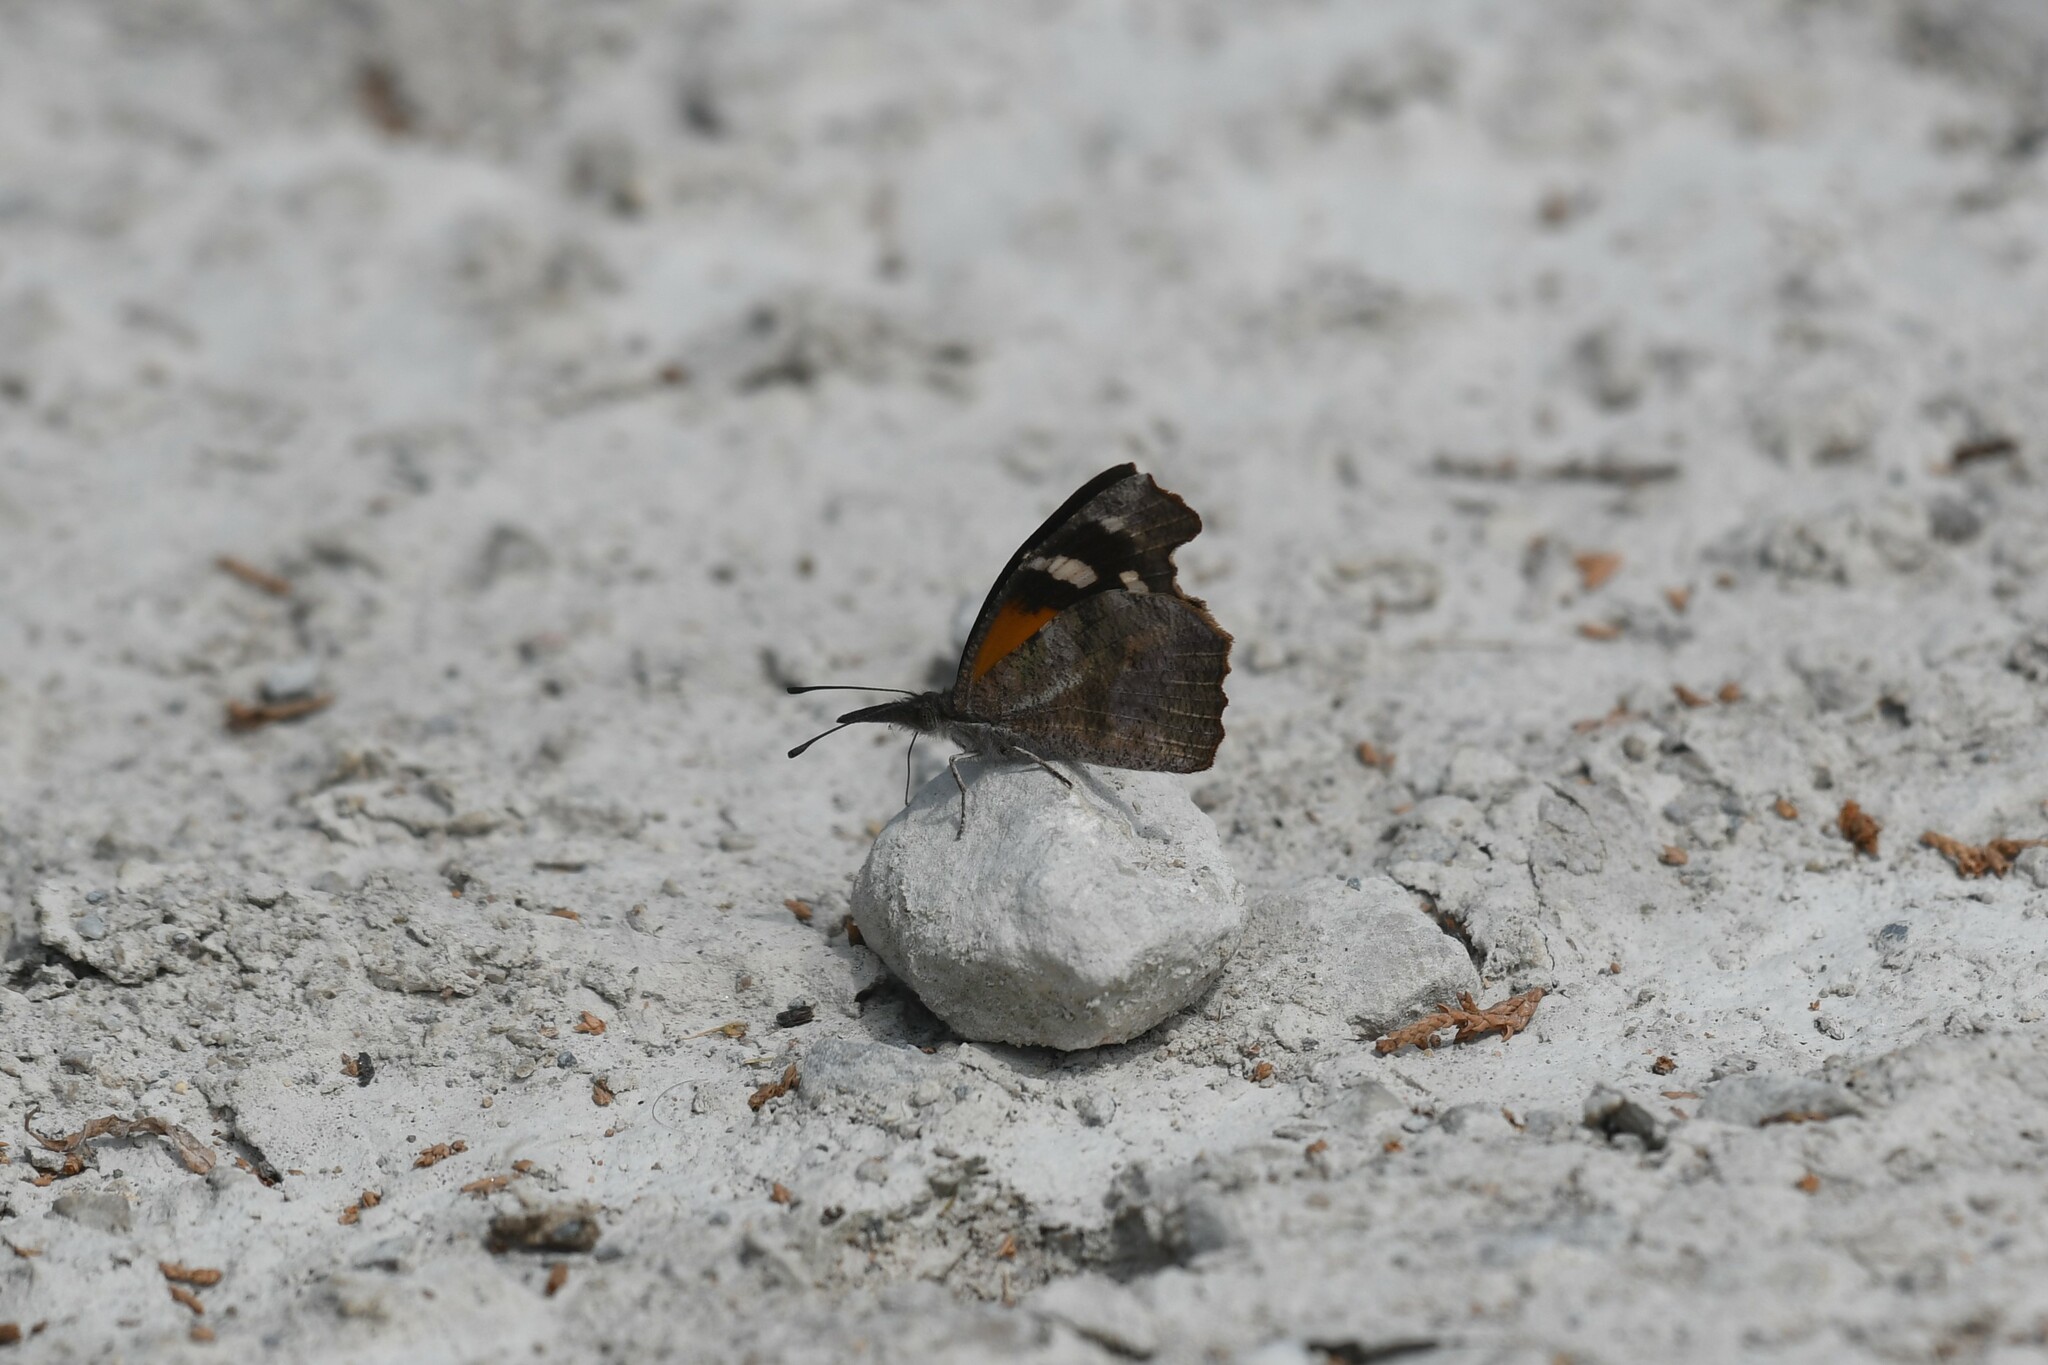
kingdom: Animalia
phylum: Arthropoda
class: Insecta
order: Lepidoptera
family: Nymphalidae
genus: Libytheana
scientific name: Libytheana carinenta
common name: American snout
